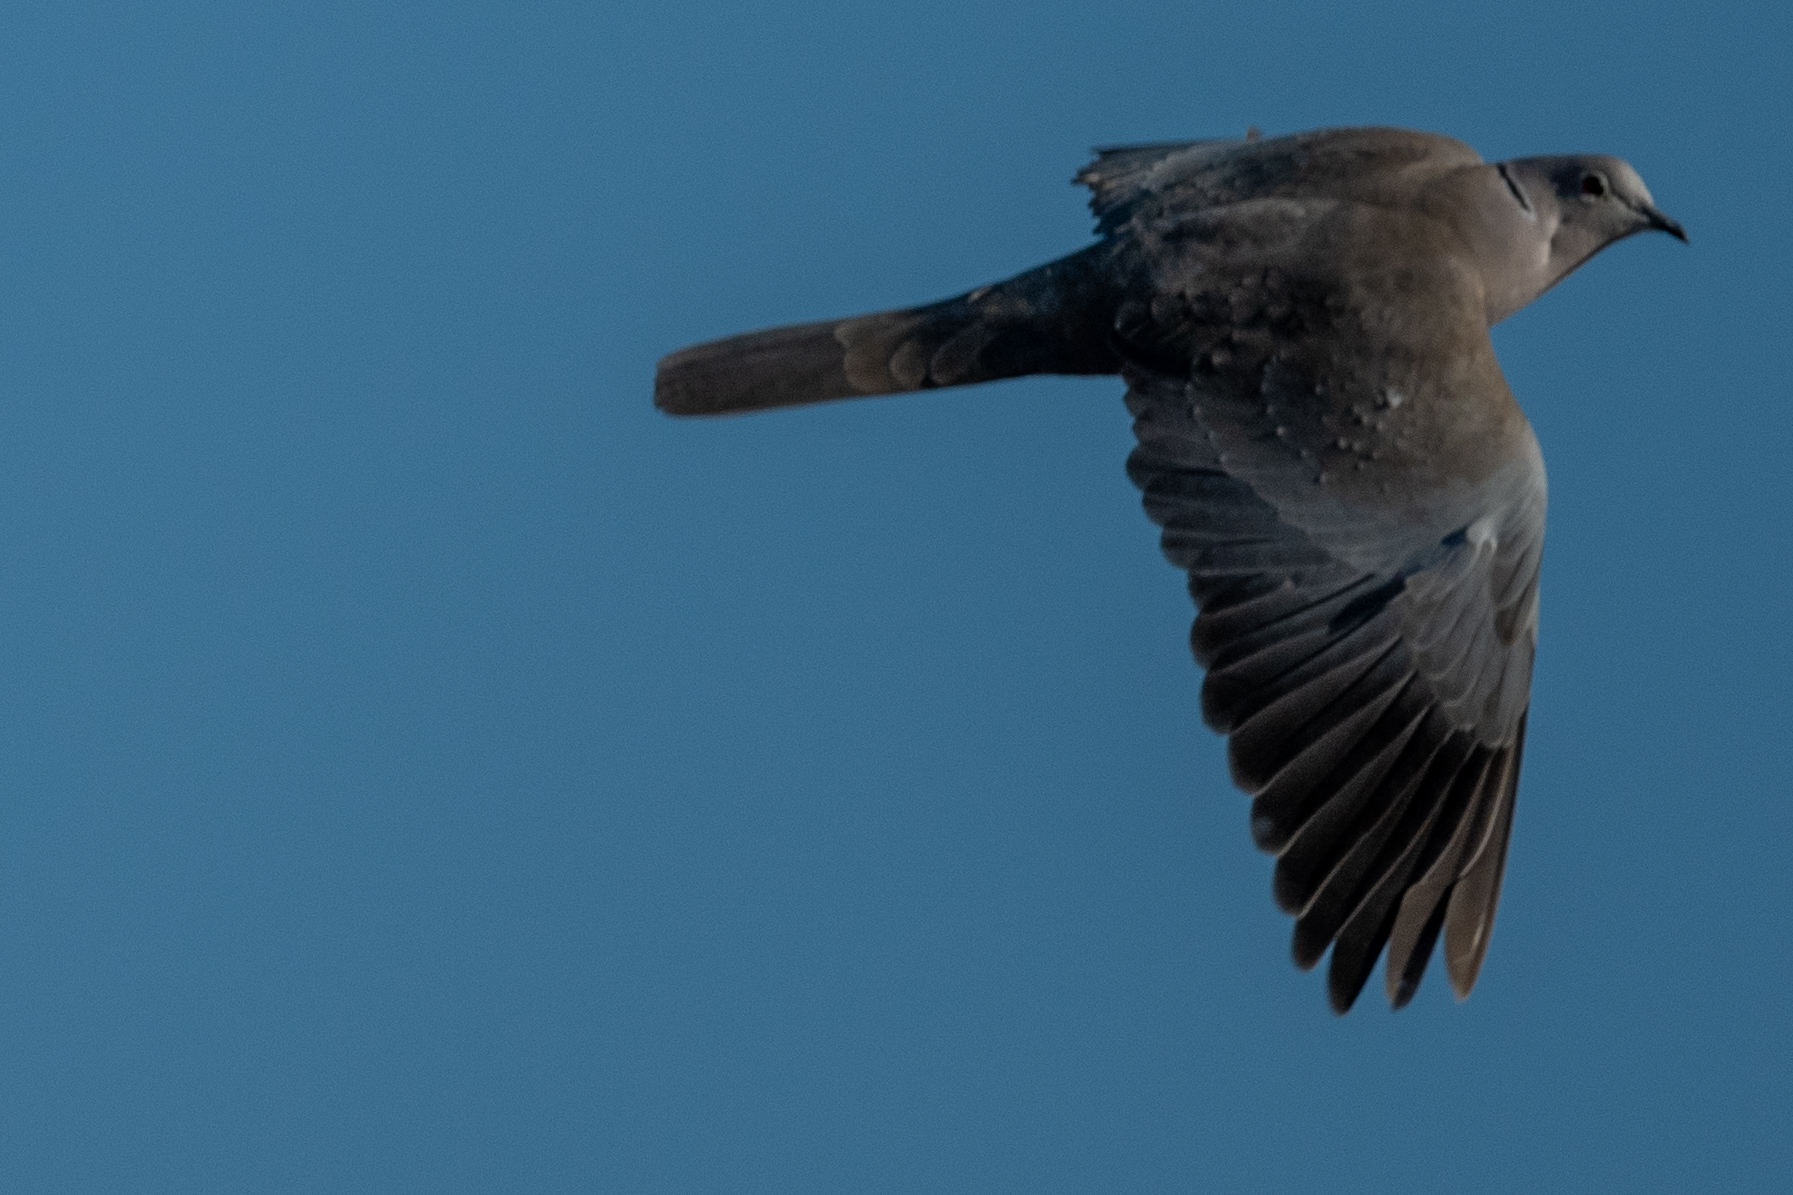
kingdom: Animalia
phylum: Chordata
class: Aves
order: Columbiformes
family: Columbidae
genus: Streptopelia
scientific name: Streptopelia decaocto
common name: Eurasian collared dove
